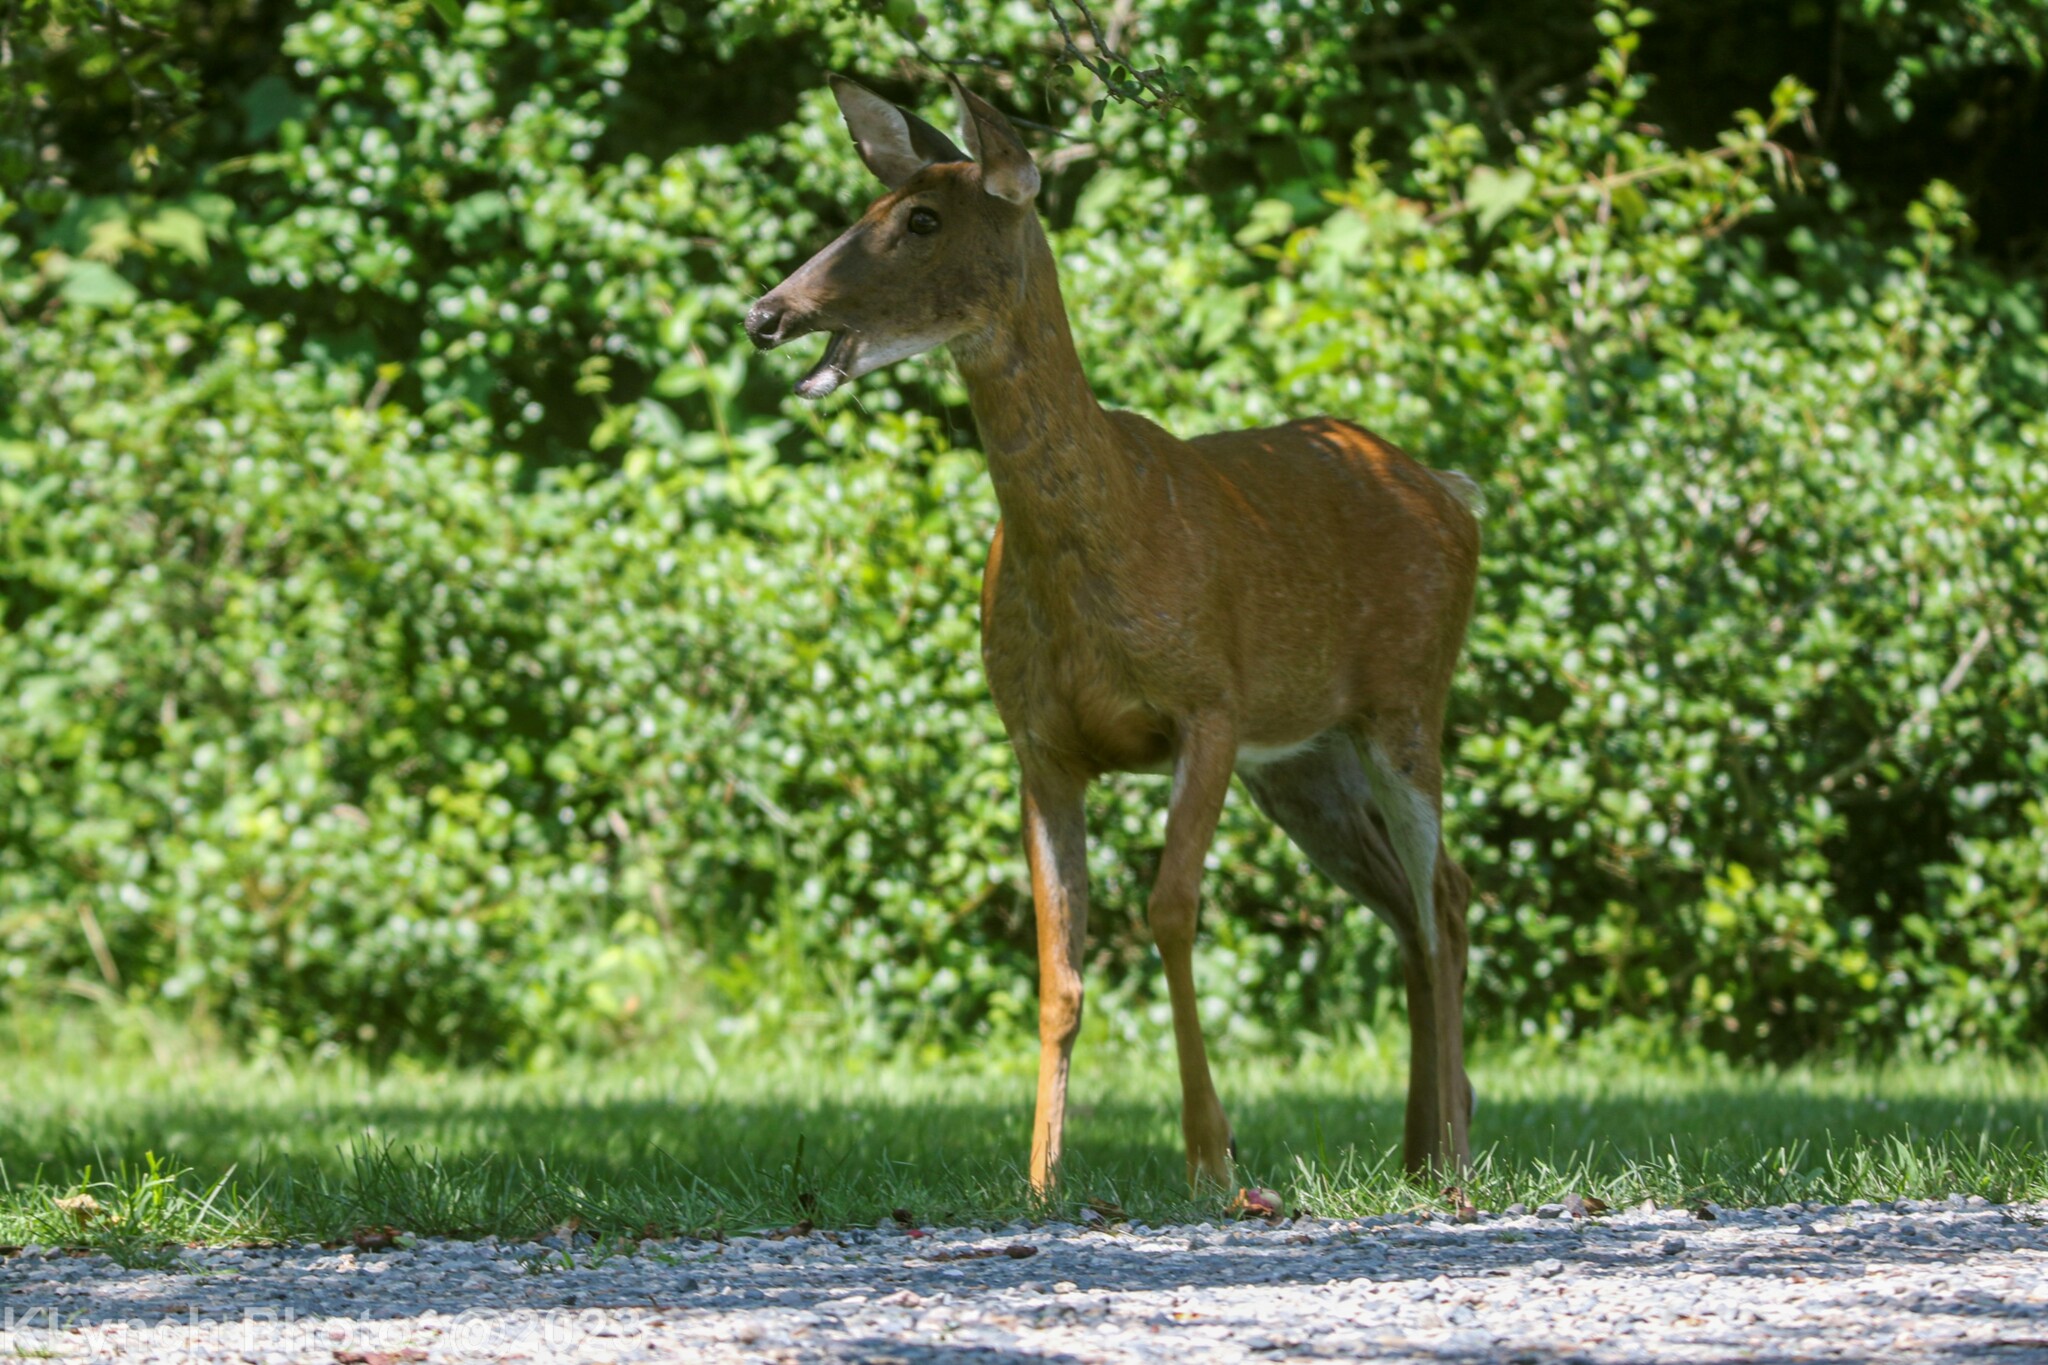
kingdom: Animalia
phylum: Chordata
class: Mammalia
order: Artiodactyla
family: Cervidae
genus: Odocoileus
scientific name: Odocoileus virginianus
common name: White-tailed deer
